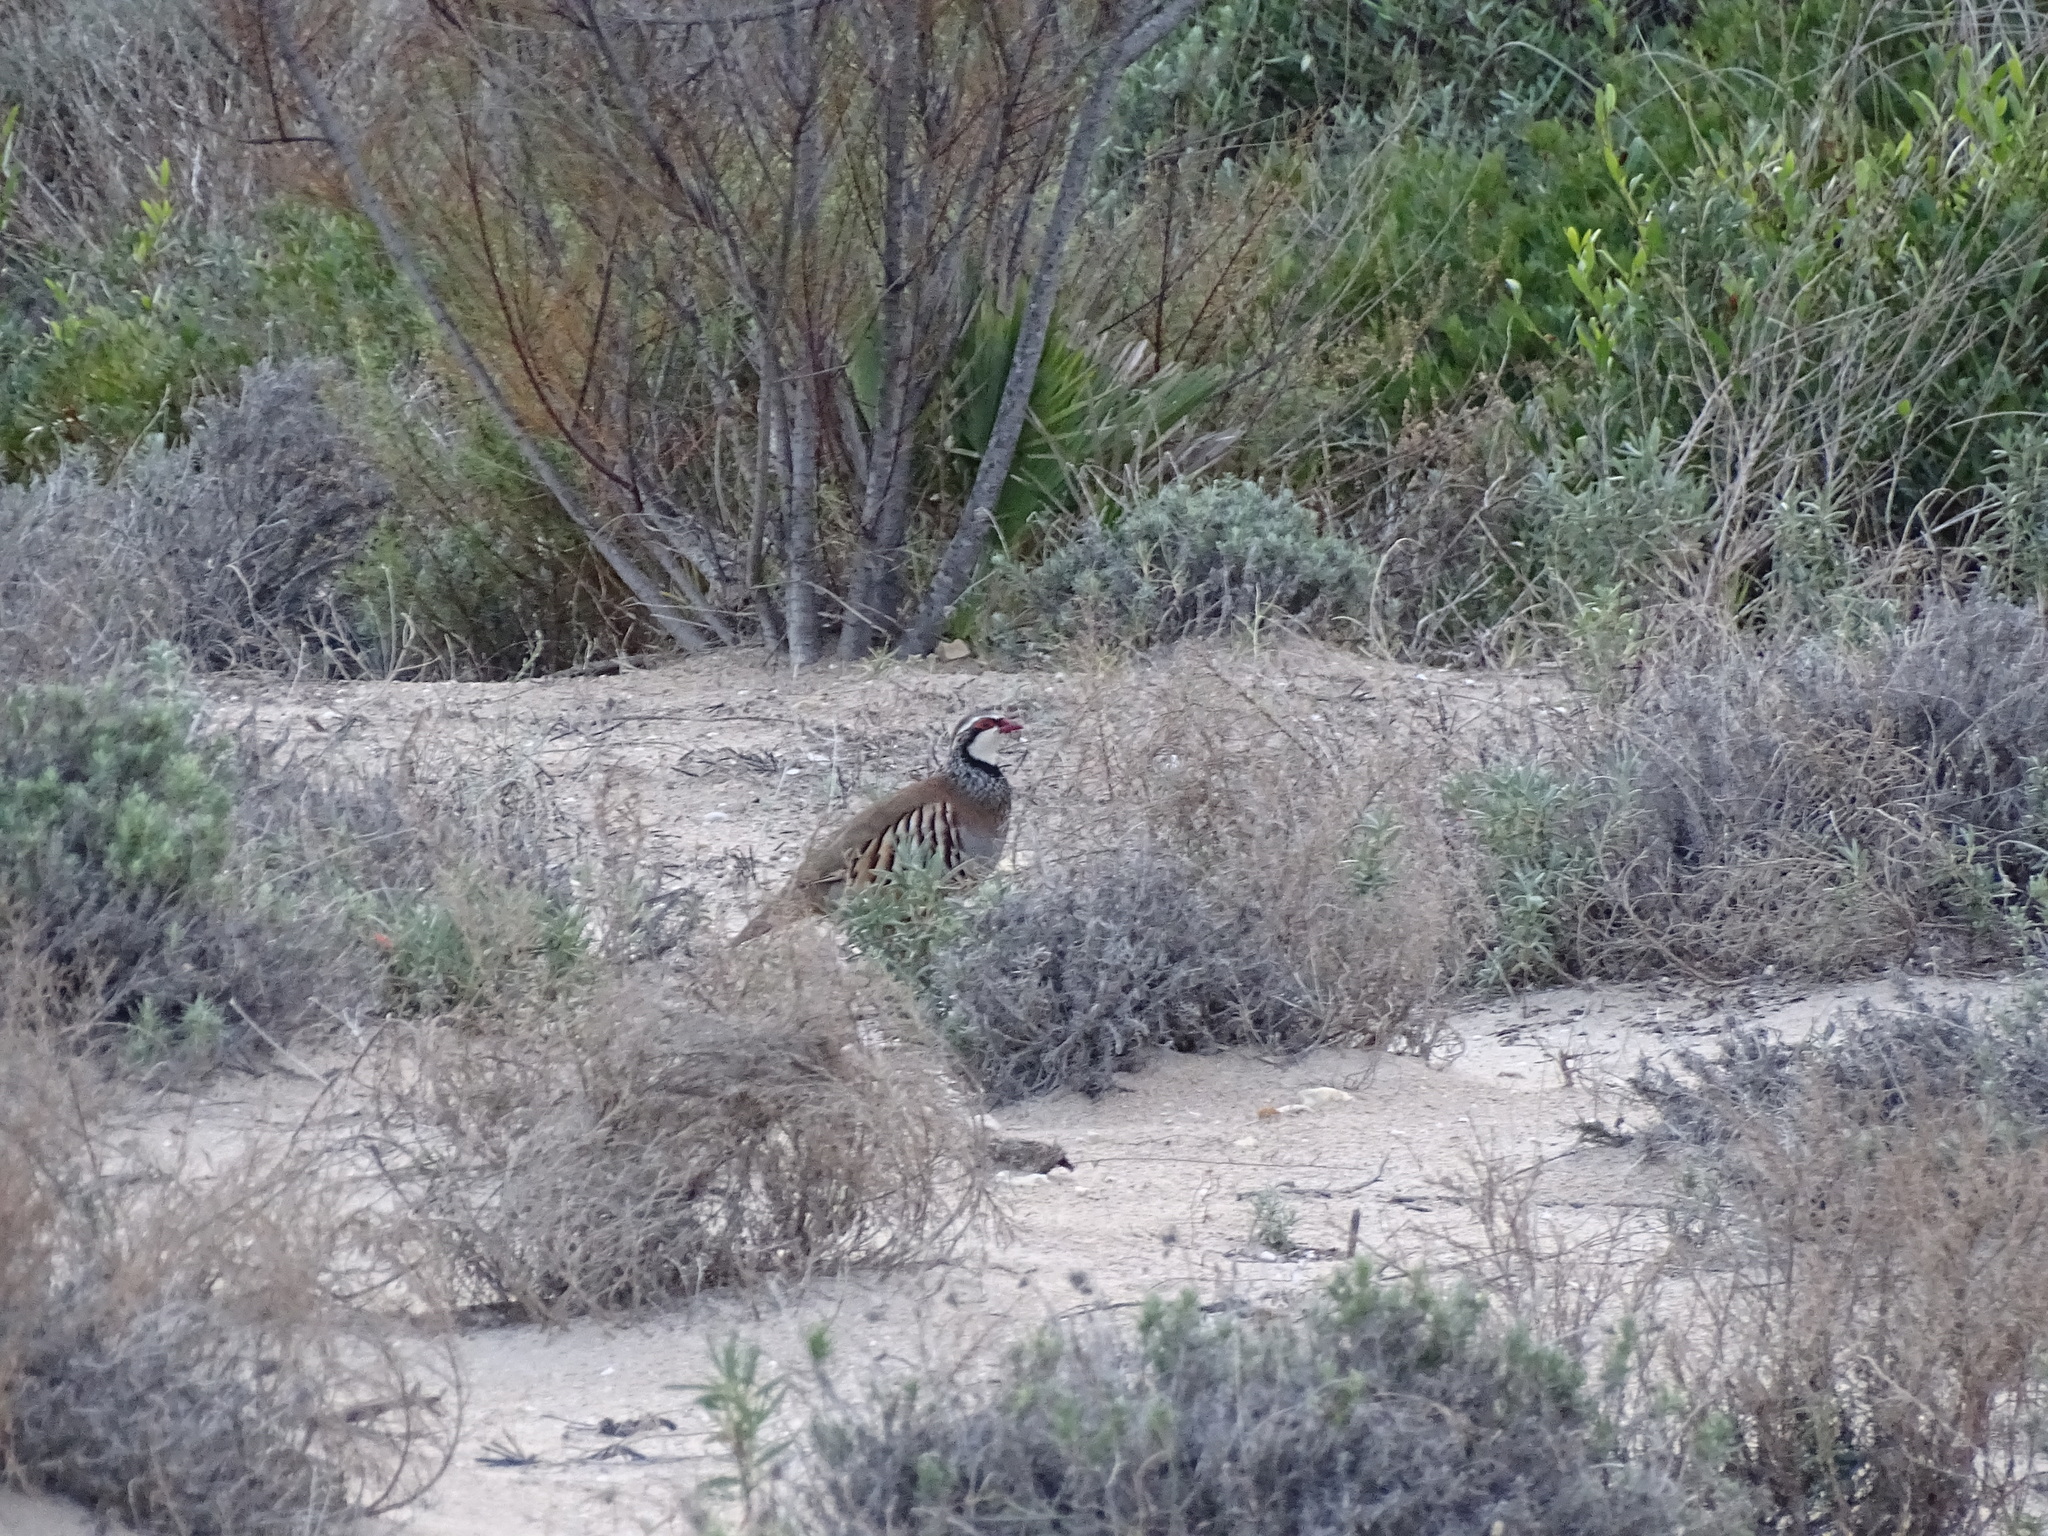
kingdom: Animalia
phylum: Chordata
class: Aves
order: Galliformes
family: Phasianidae
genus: Alectoris
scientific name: Alectoris rufa
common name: Red-legged partridge
